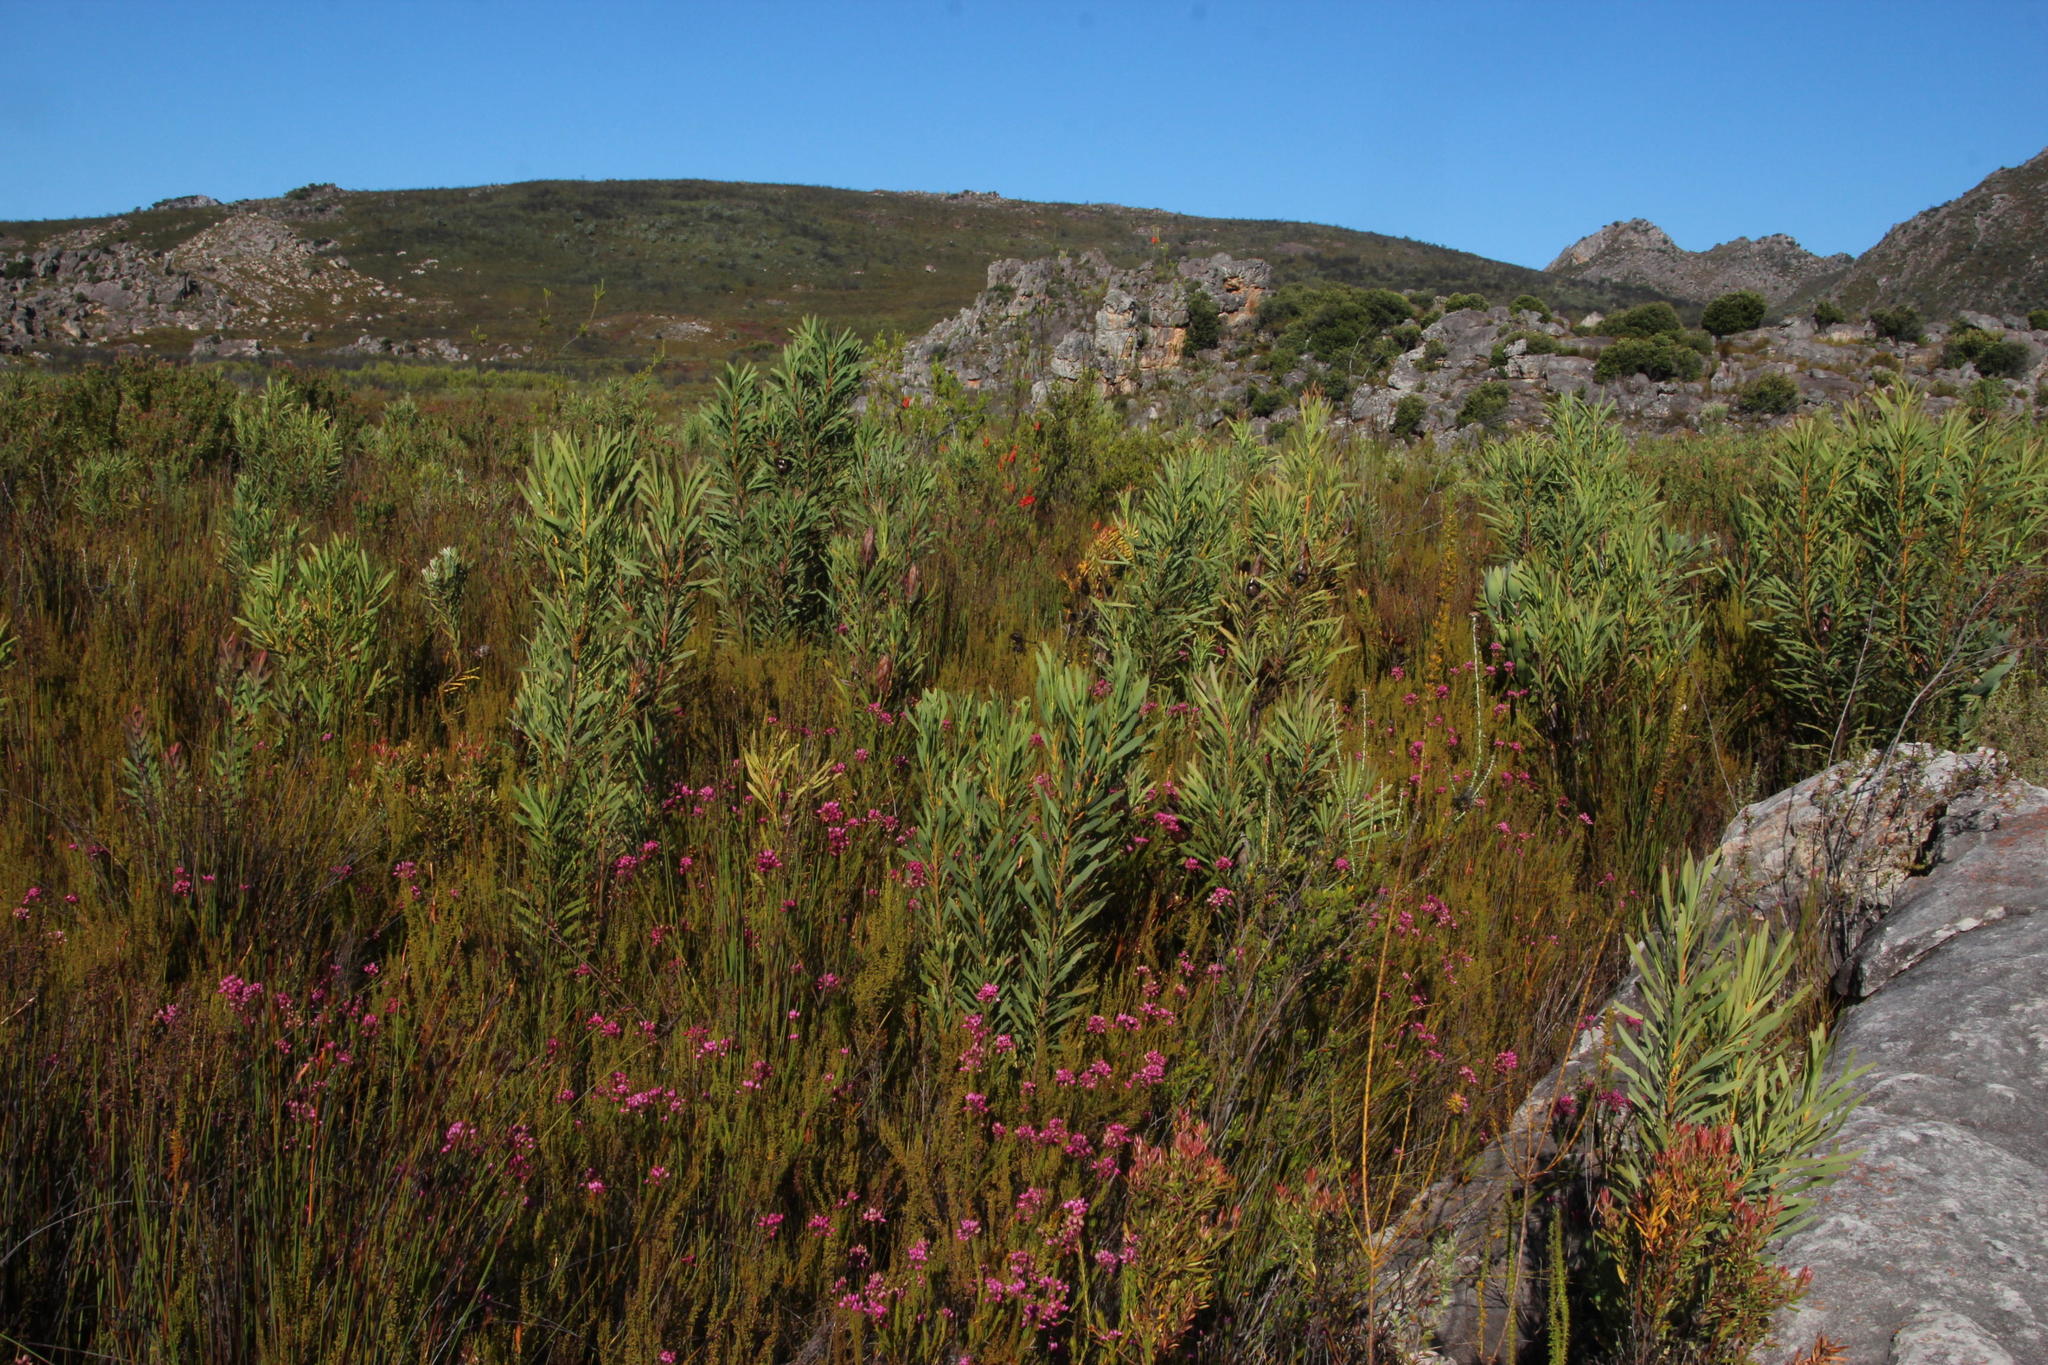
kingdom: Plantae
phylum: Tracheophyta
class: Magnoliopsida
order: Proteales
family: Proteaceae
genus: Protea
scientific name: Protea repens
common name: Sugarbush
